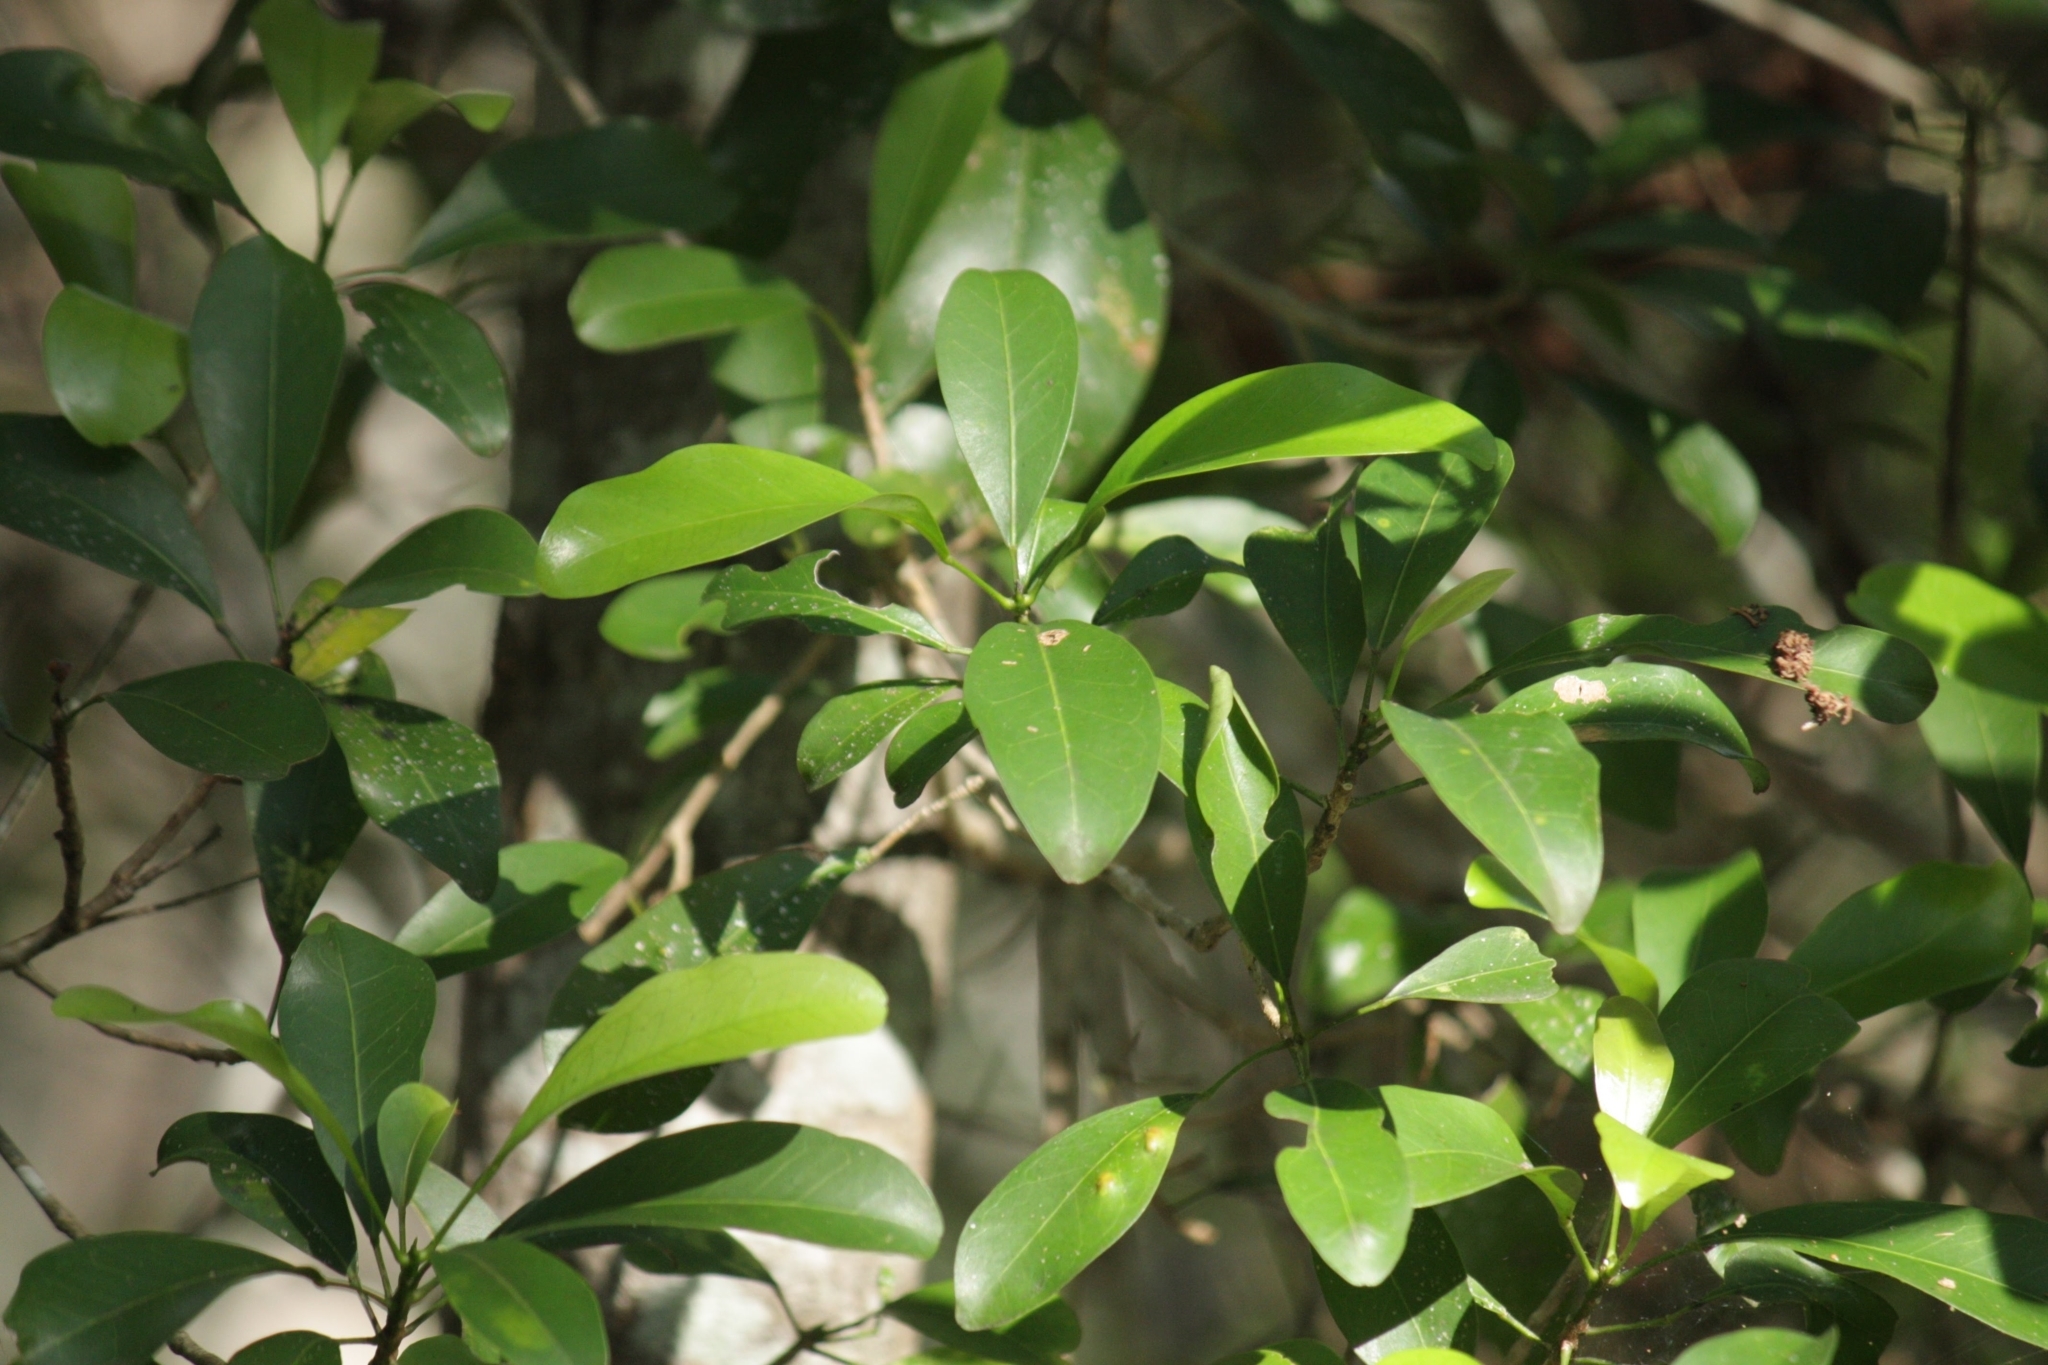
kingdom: Plantae
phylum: Tracheophyta
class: Magnoliopsida
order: Sapindales
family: Rutaceae
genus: Acronychia
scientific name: Acronychia laevis
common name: Hard aspen
